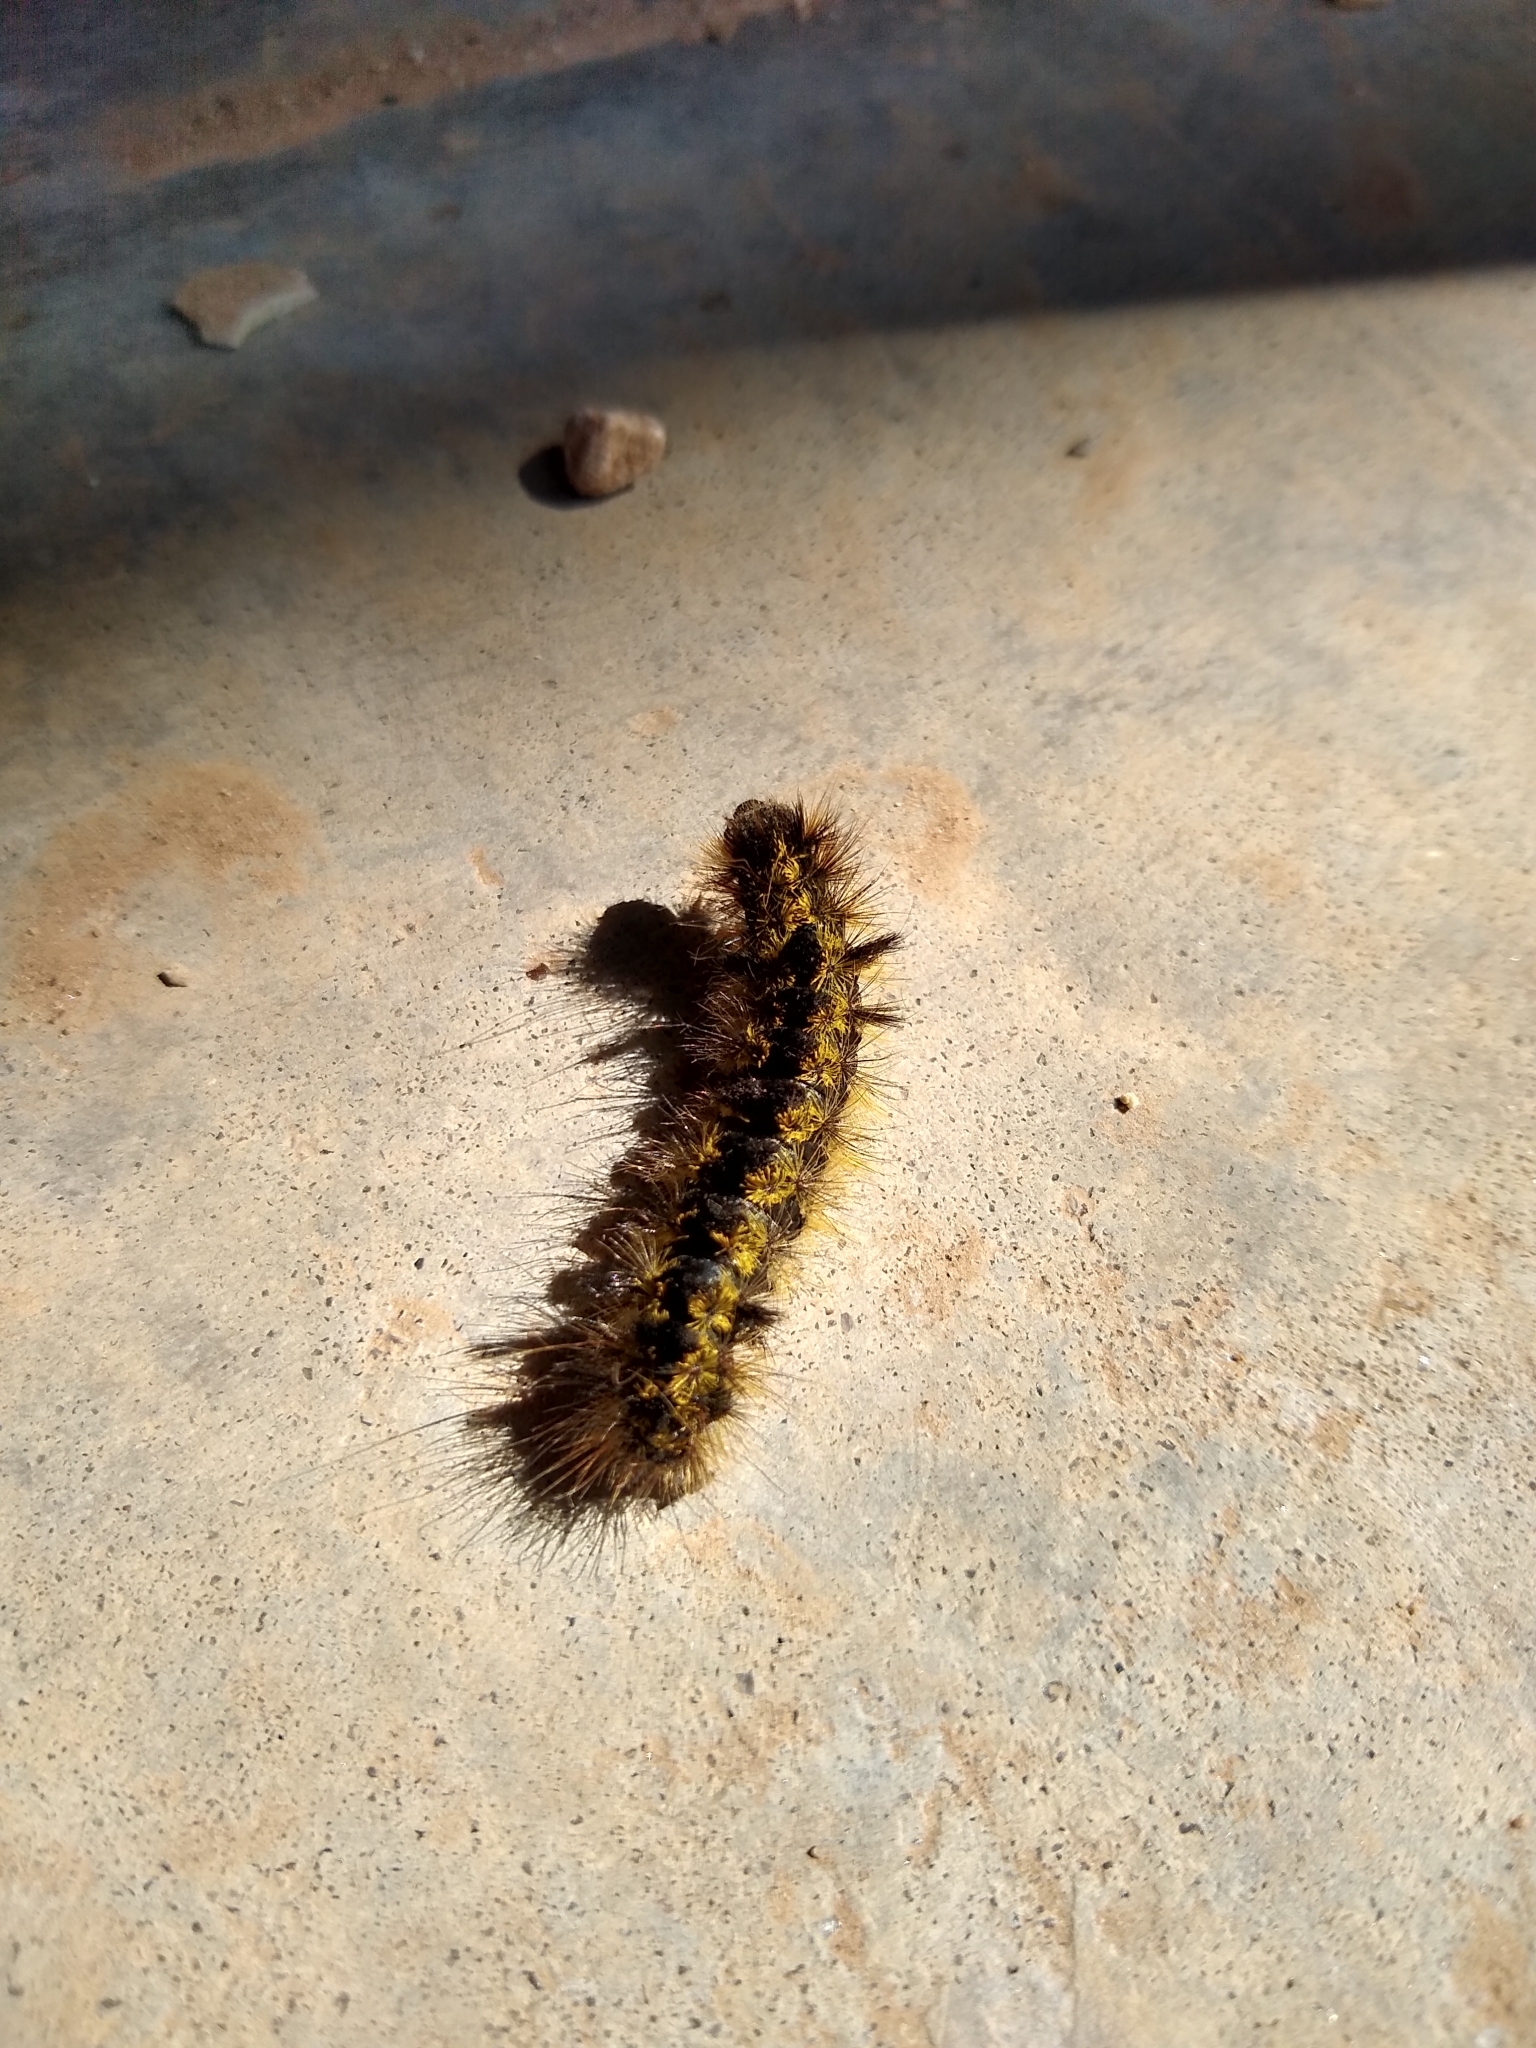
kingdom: Animalia
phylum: Arthropoda
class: Insecta
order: Lepidoptera
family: Erebidae
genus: Lophocampa
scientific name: Lophocampa argentata
